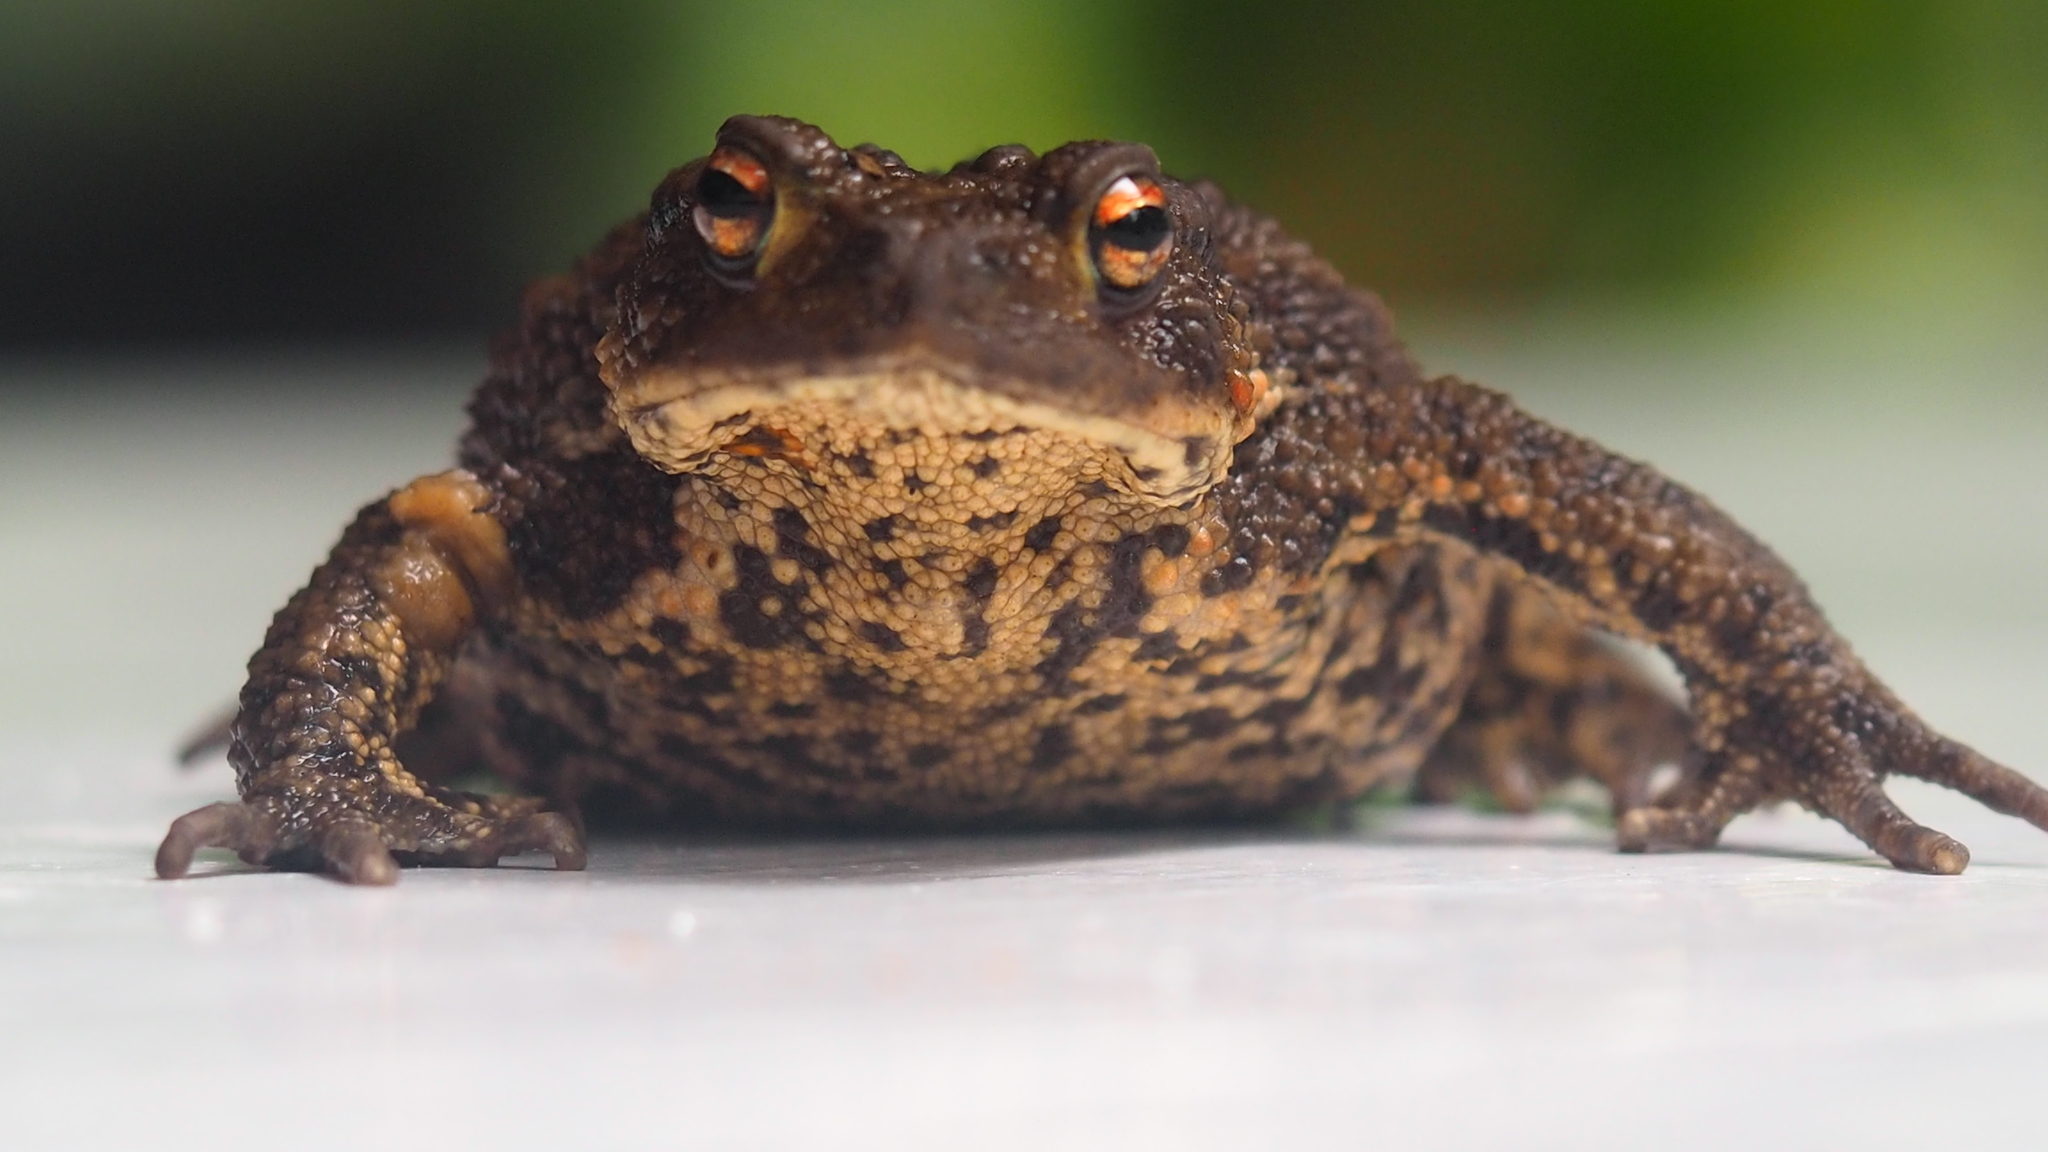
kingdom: Animalia
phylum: Chordata
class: Amphibia
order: Anura
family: Bufonidae
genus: Bufo
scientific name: Bufo bufo
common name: Common toad
